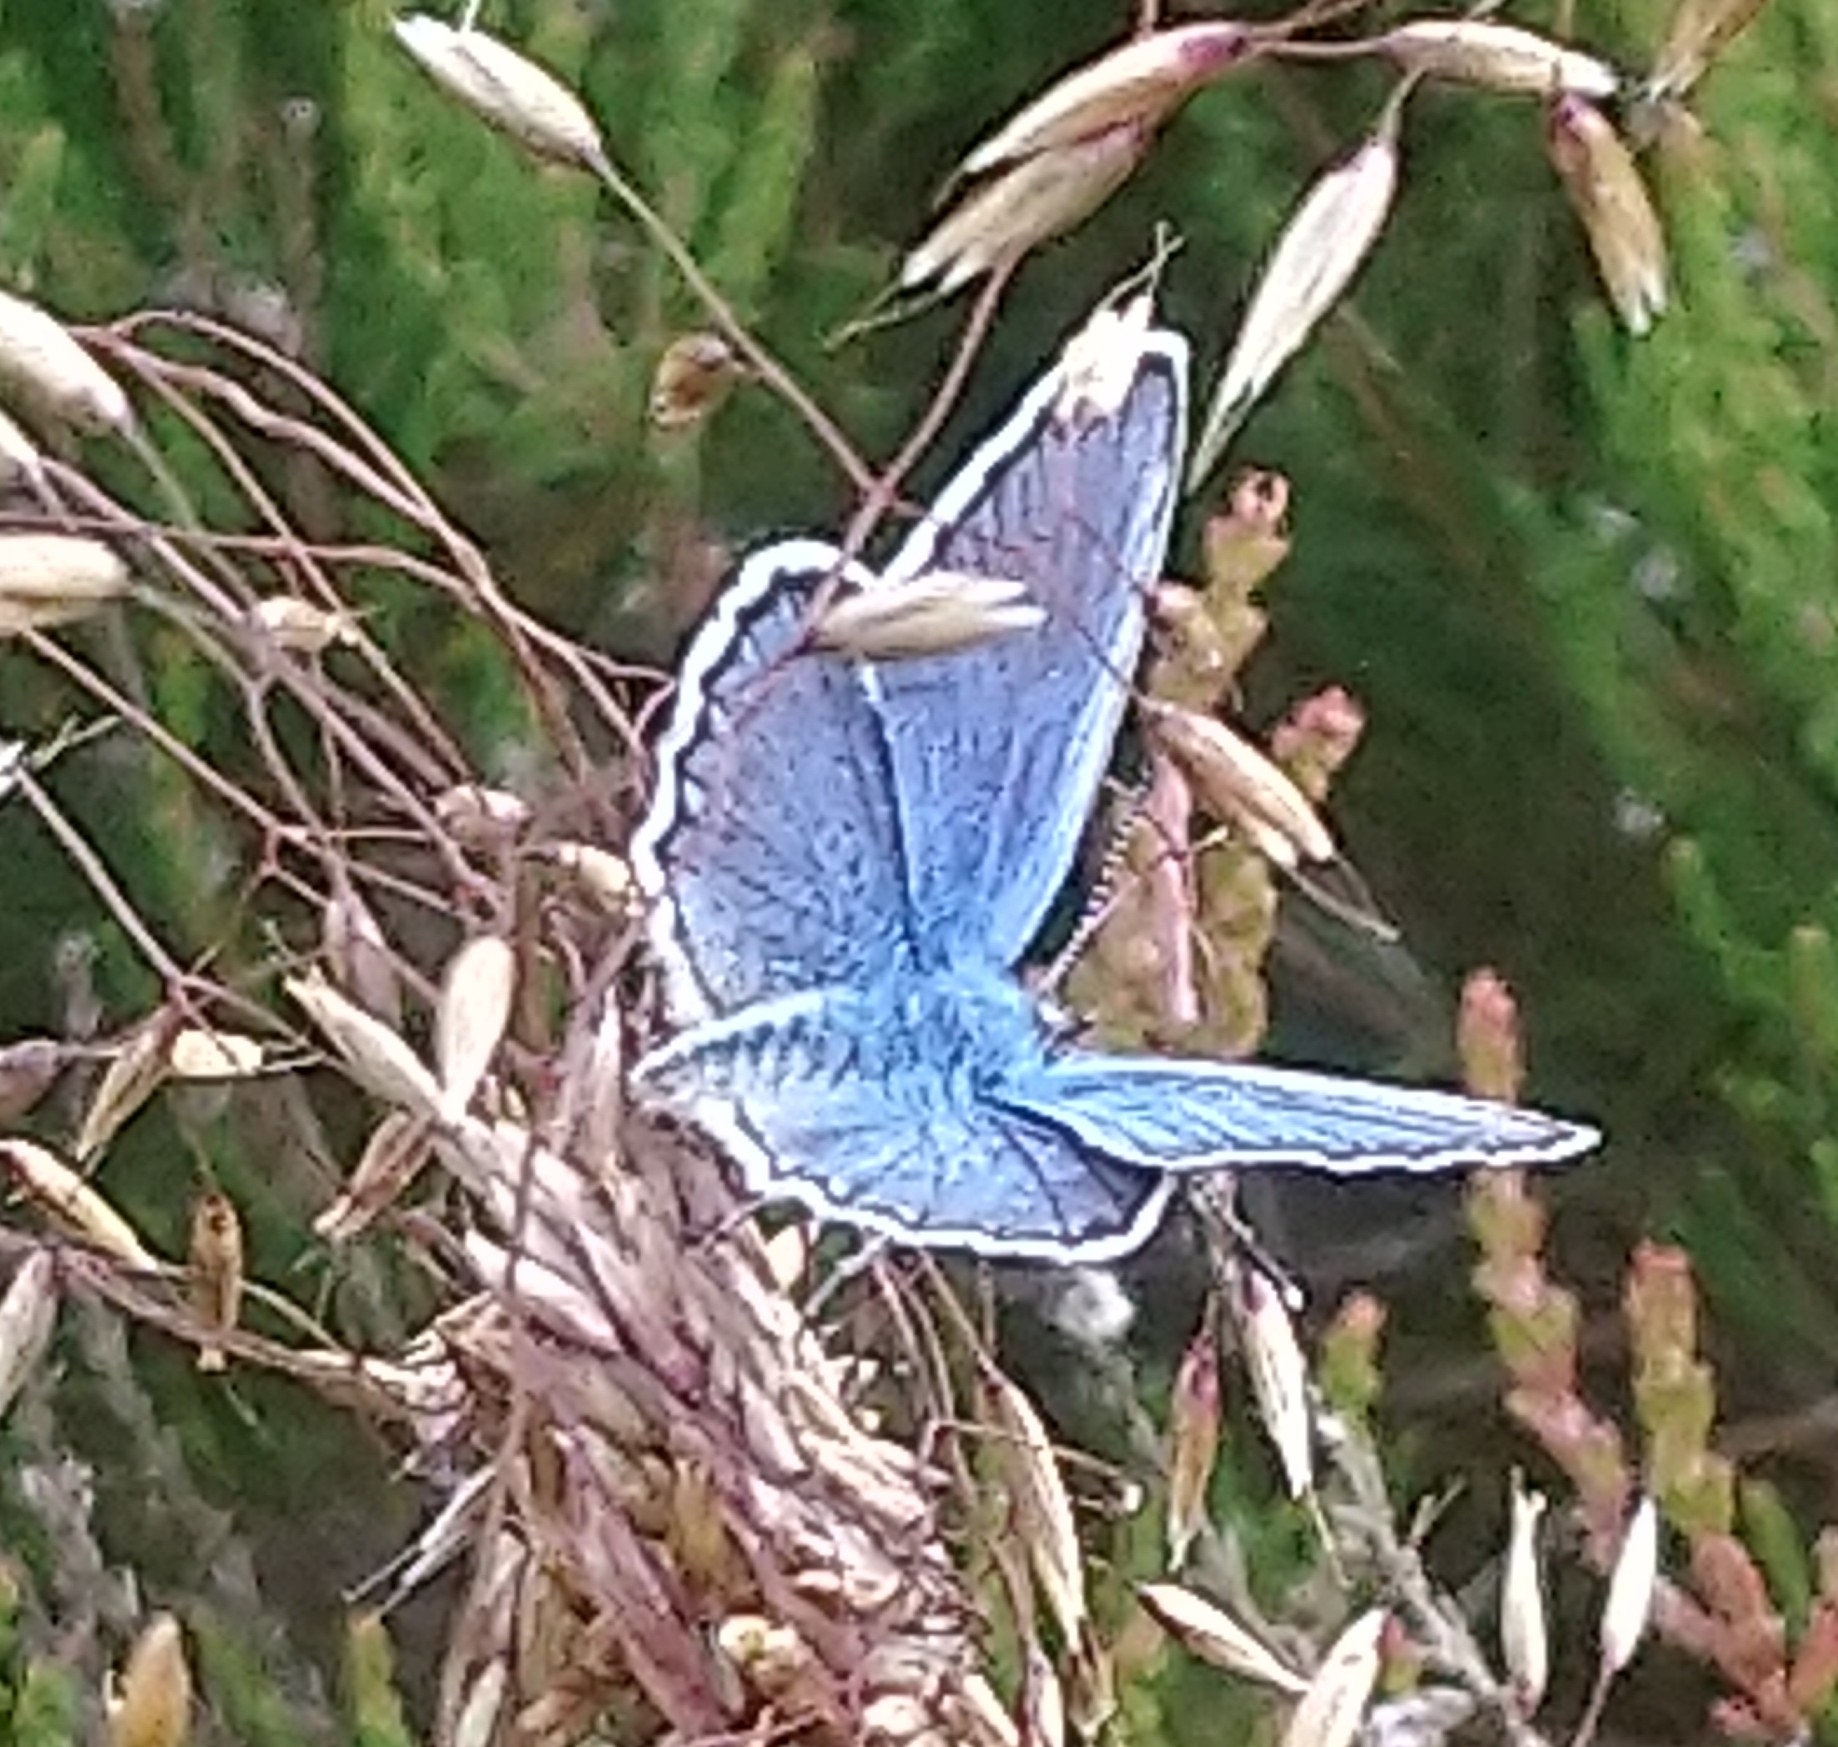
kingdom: Animalia
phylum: Arthropoda
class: Insecta
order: Lepidoptera
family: Lycaenidae
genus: Lycaeides
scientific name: Lycaeides idas
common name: Northern blue
